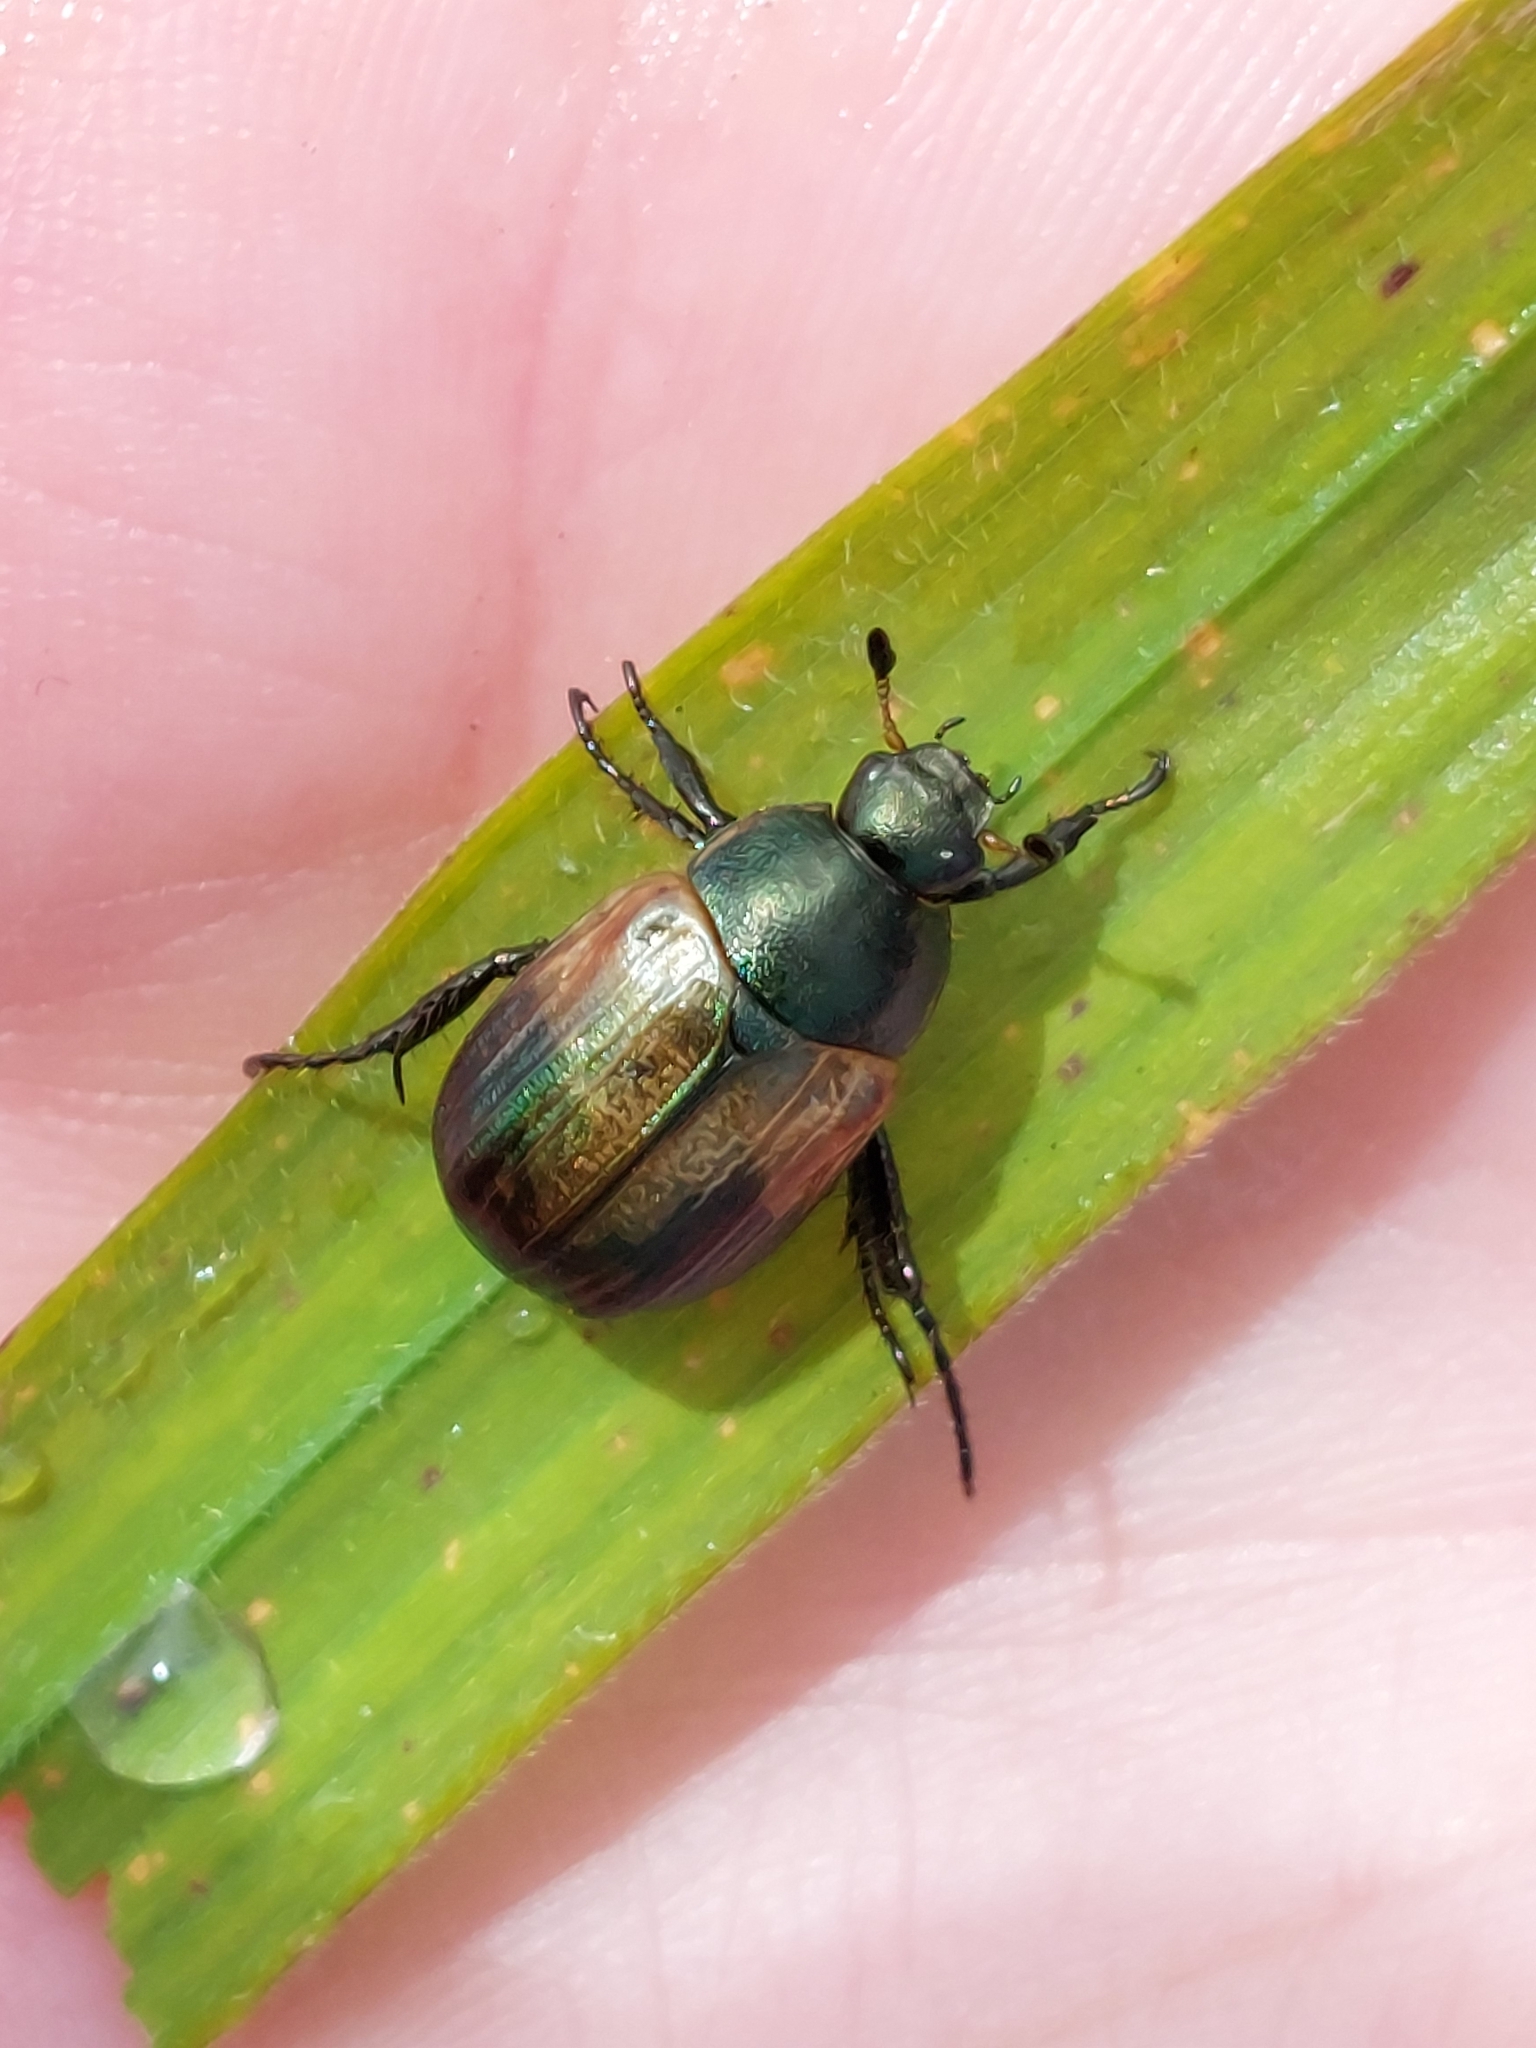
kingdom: Animalia
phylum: Arthropoda
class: Insecta
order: Coleoptera
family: Scarabaeidae
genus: Anomala
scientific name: Anomala dubia
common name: Dune chafer
